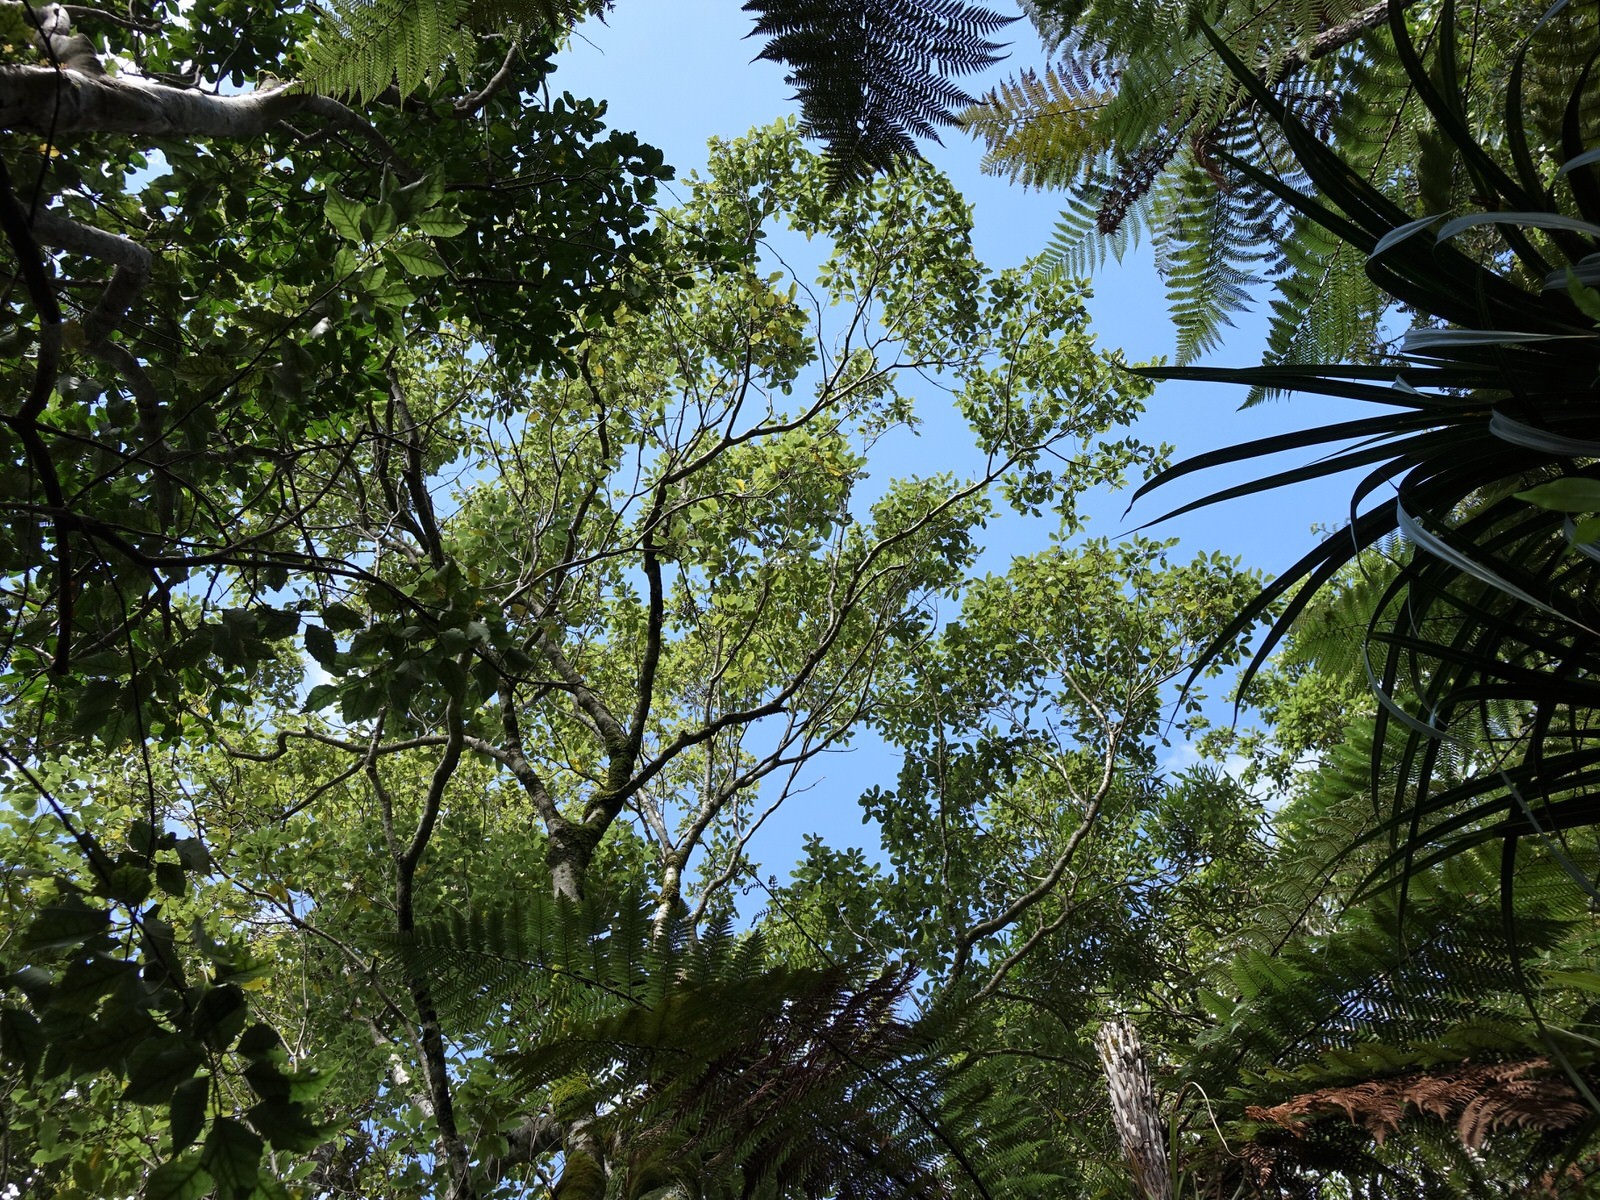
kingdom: Plantae
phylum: Tracheophyta
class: Magnoliopsida
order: Apiales
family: Pittosporaceae
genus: Pittosporum
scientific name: Pittosporum eugenioides
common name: Lemonwood
